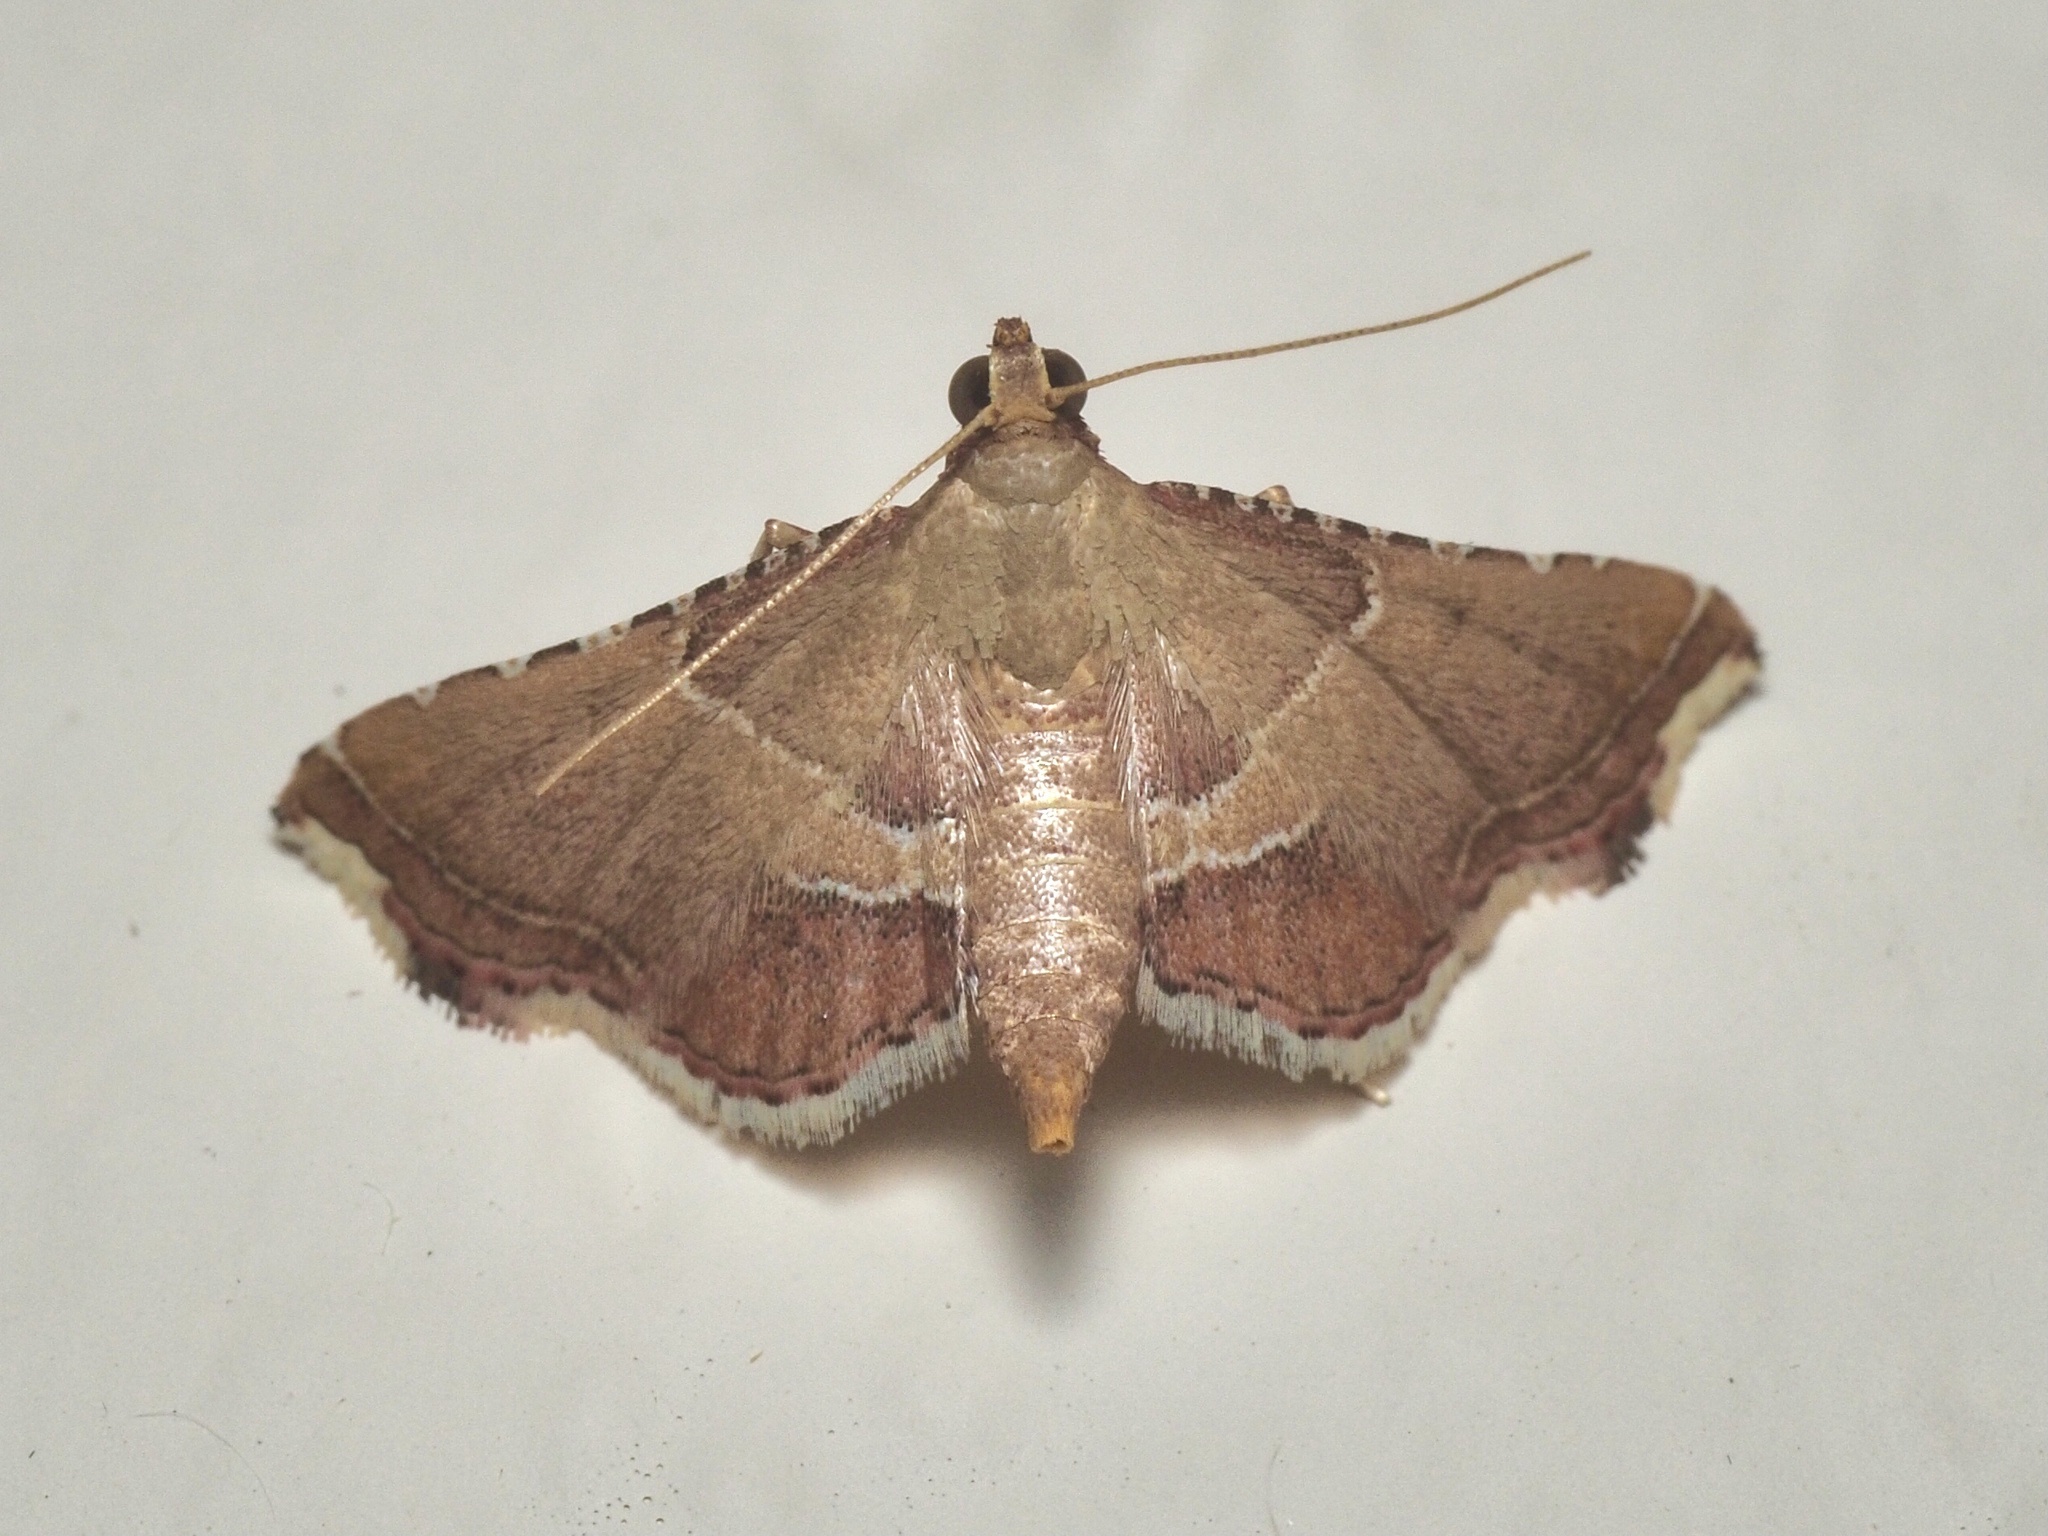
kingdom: Animalia
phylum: Arthropoda
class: Insecta
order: Lepidoptera
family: Pyralidae
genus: Endotricha
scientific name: Endotricha flammealis
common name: Rosy tabby
